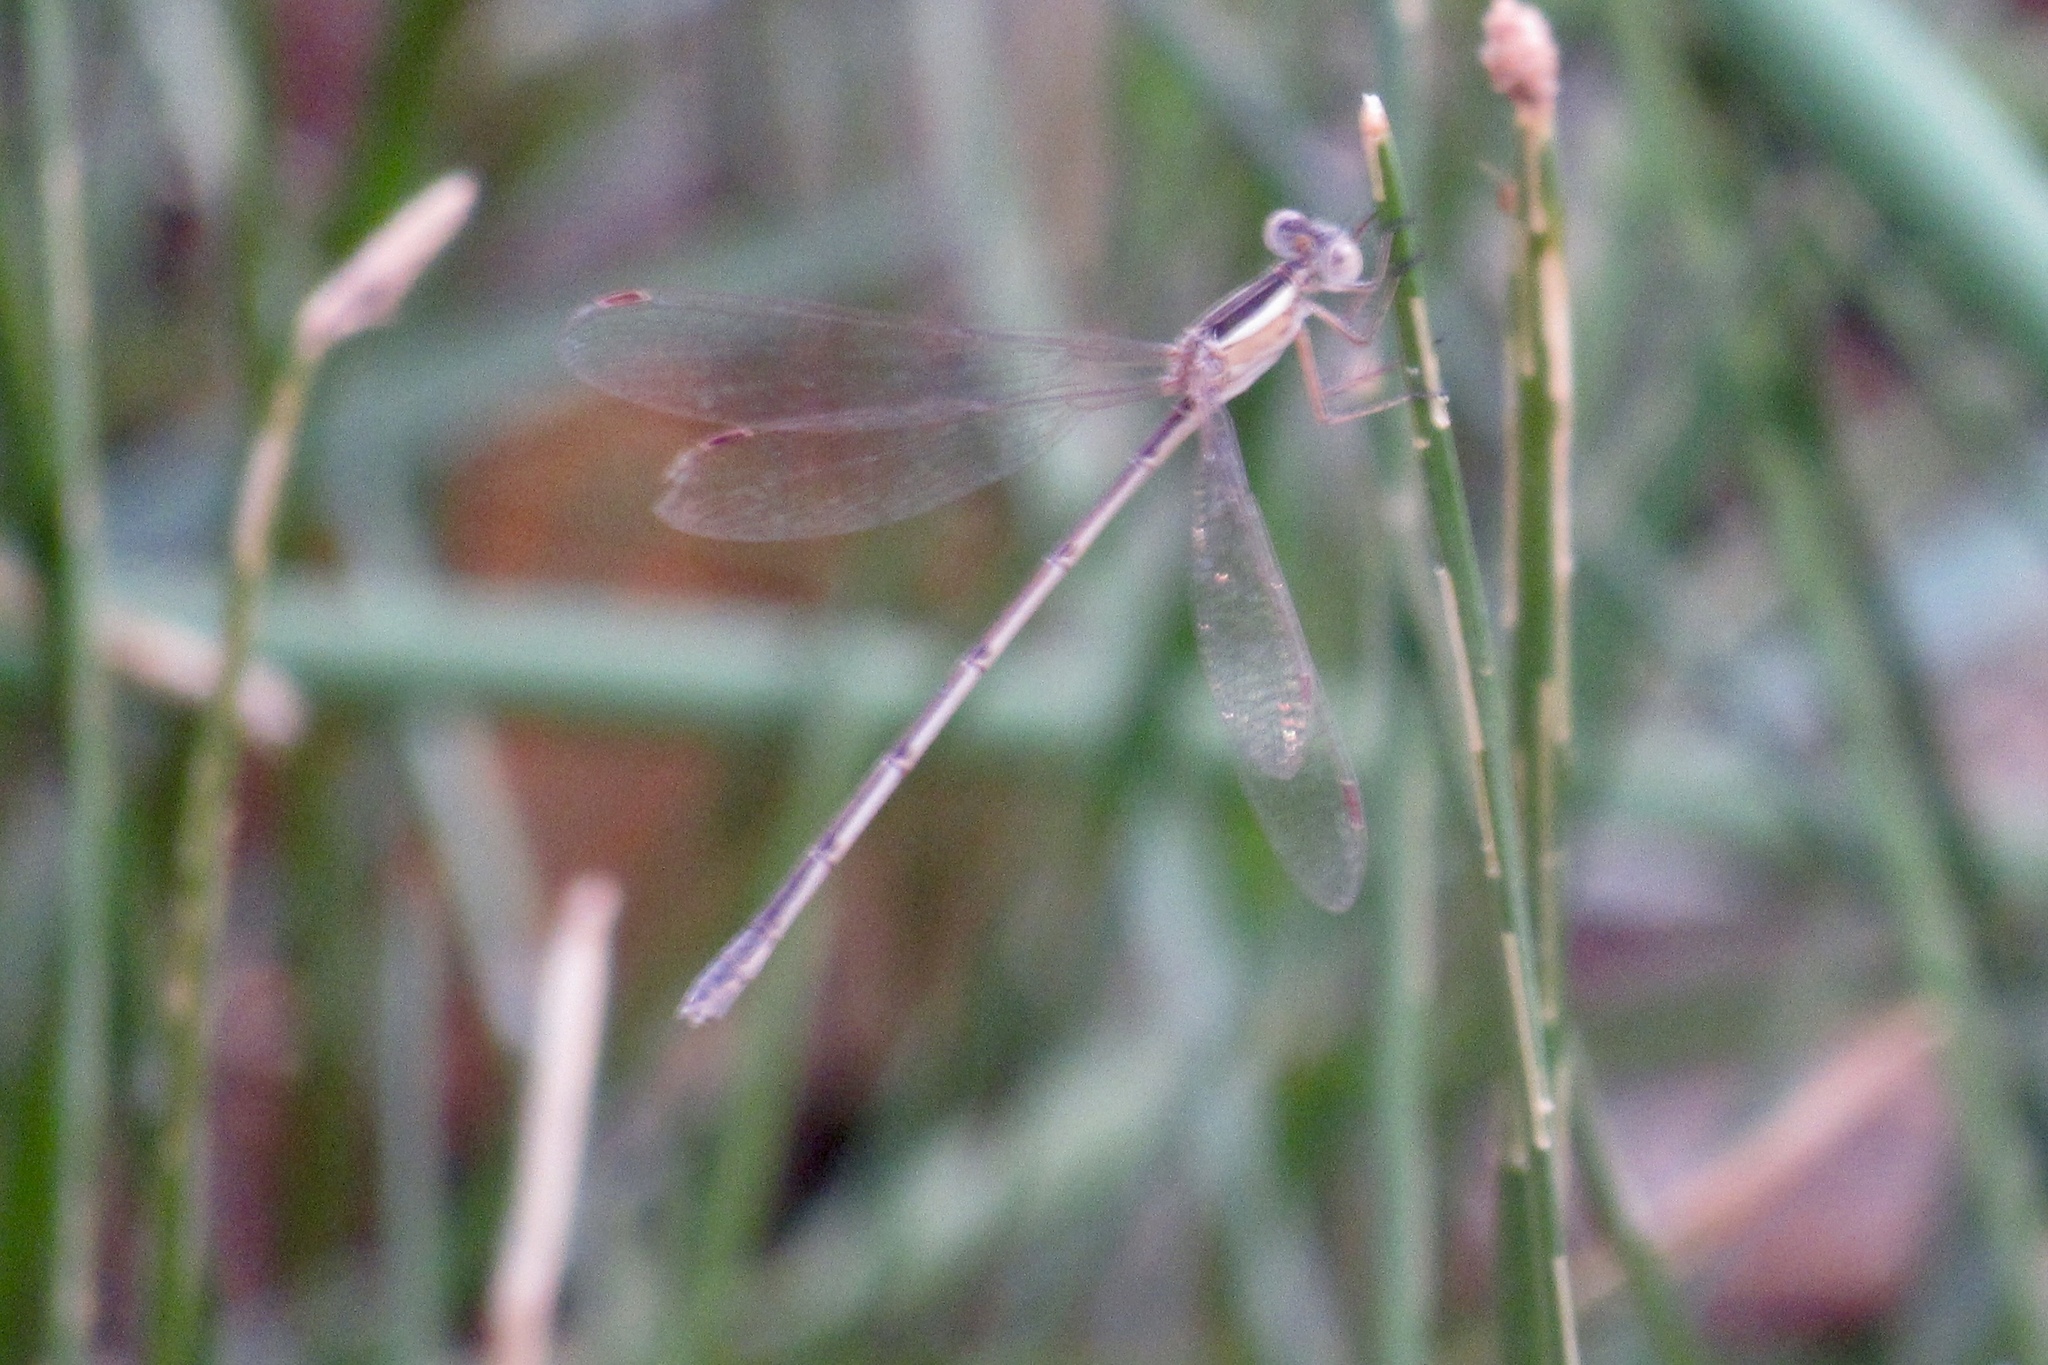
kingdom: Animalia
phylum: Arthropoda
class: Insecta
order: Odonata
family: Lestidae
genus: Lestes
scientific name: Lestes alacer
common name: Plateau spreadwing
